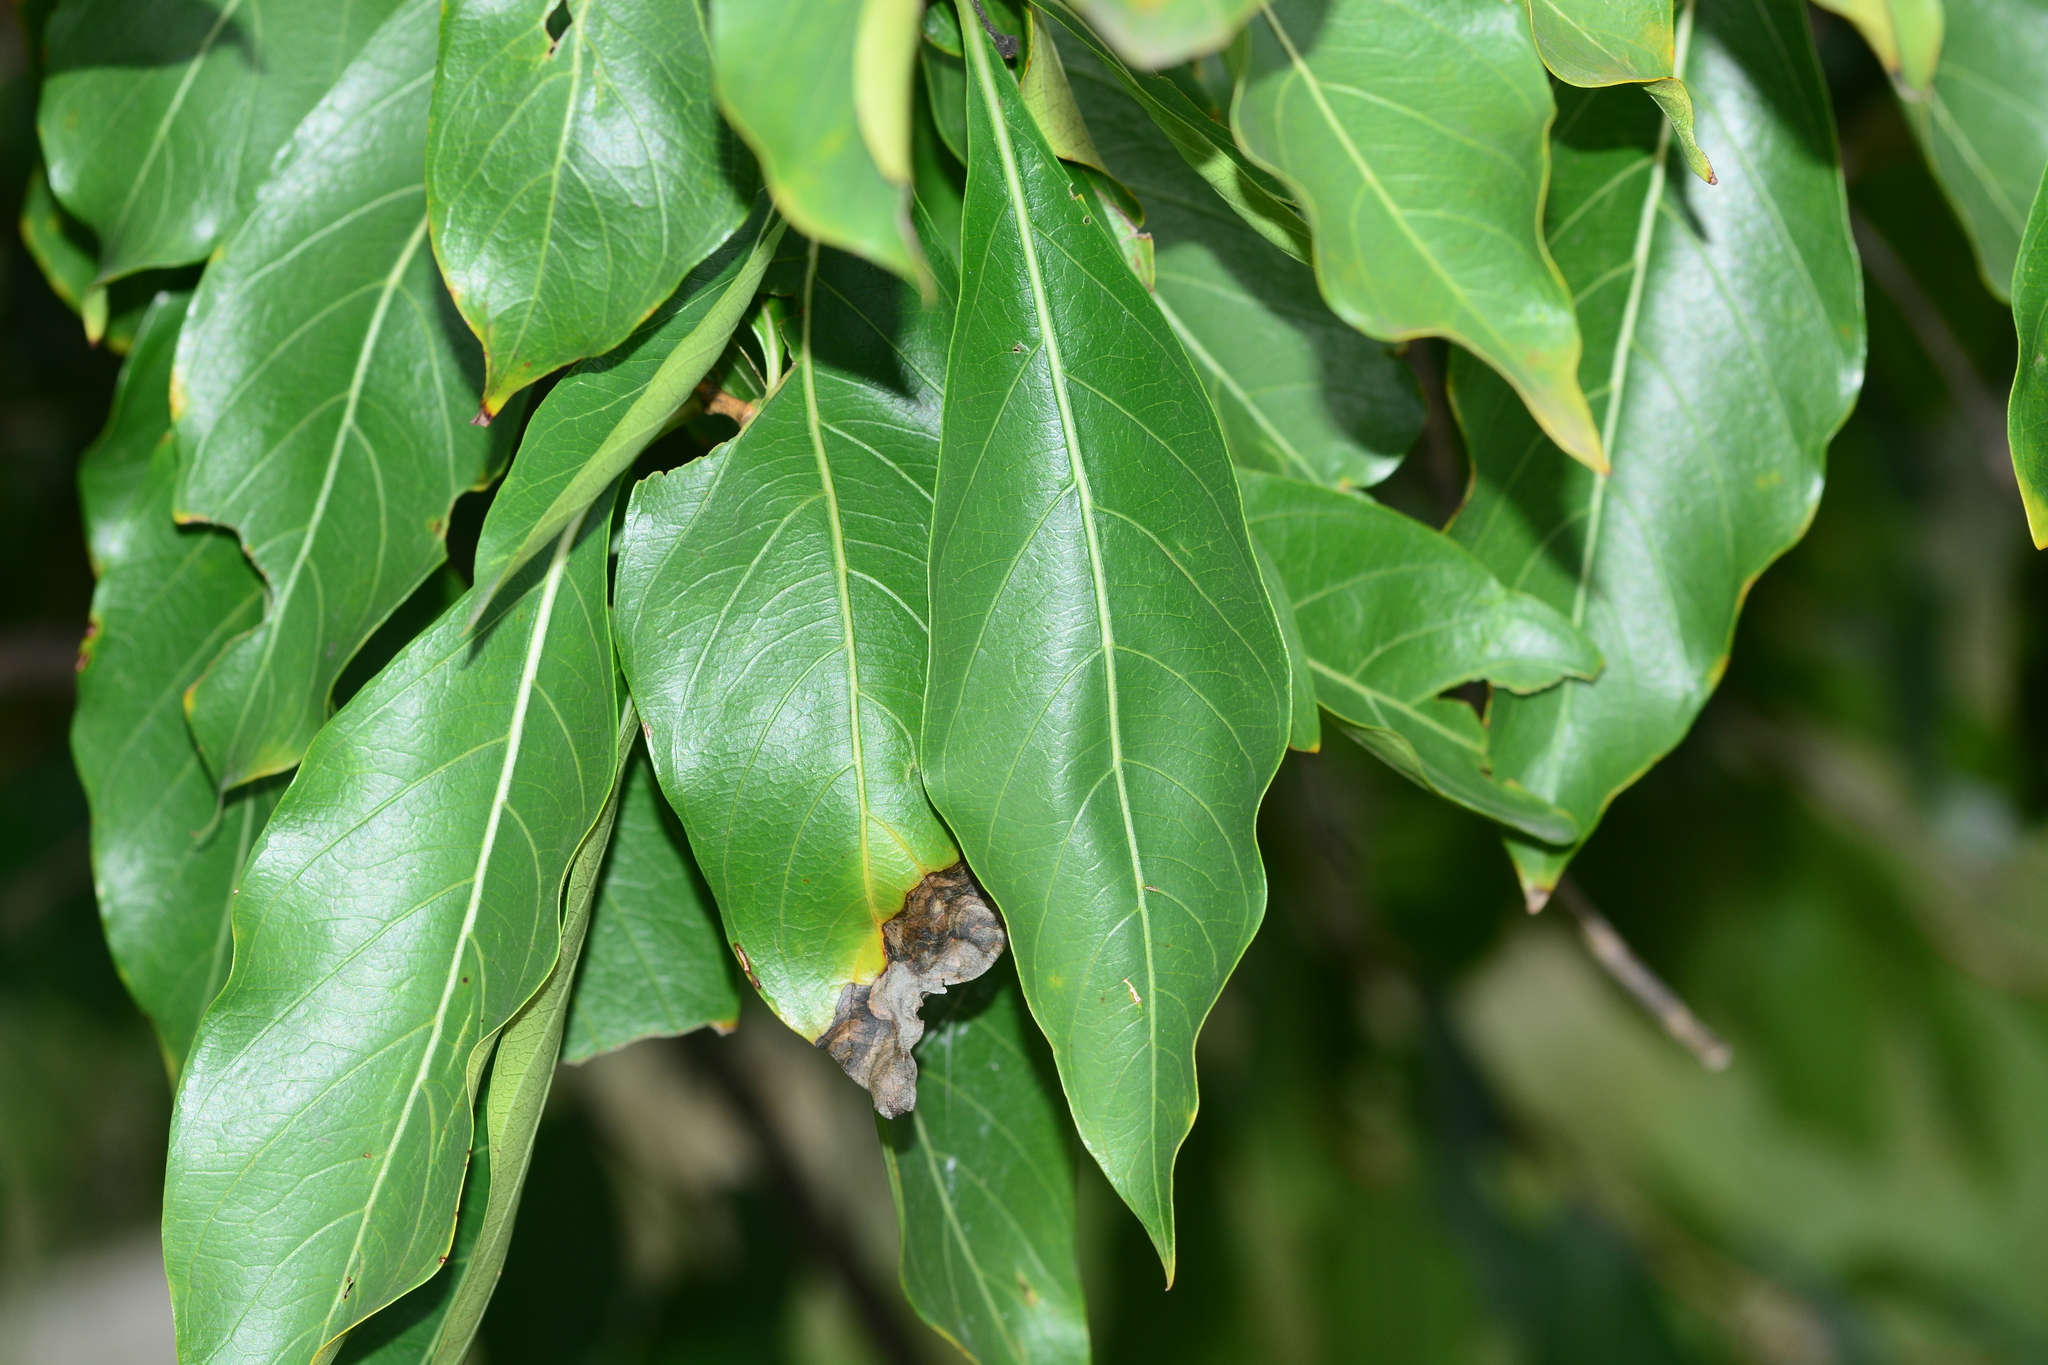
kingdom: Plantae
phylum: Tracheophyta
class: Magnoliopsida
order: Gentianales
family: Rubiaceae
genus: Morinda
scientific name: Morinda coreia
